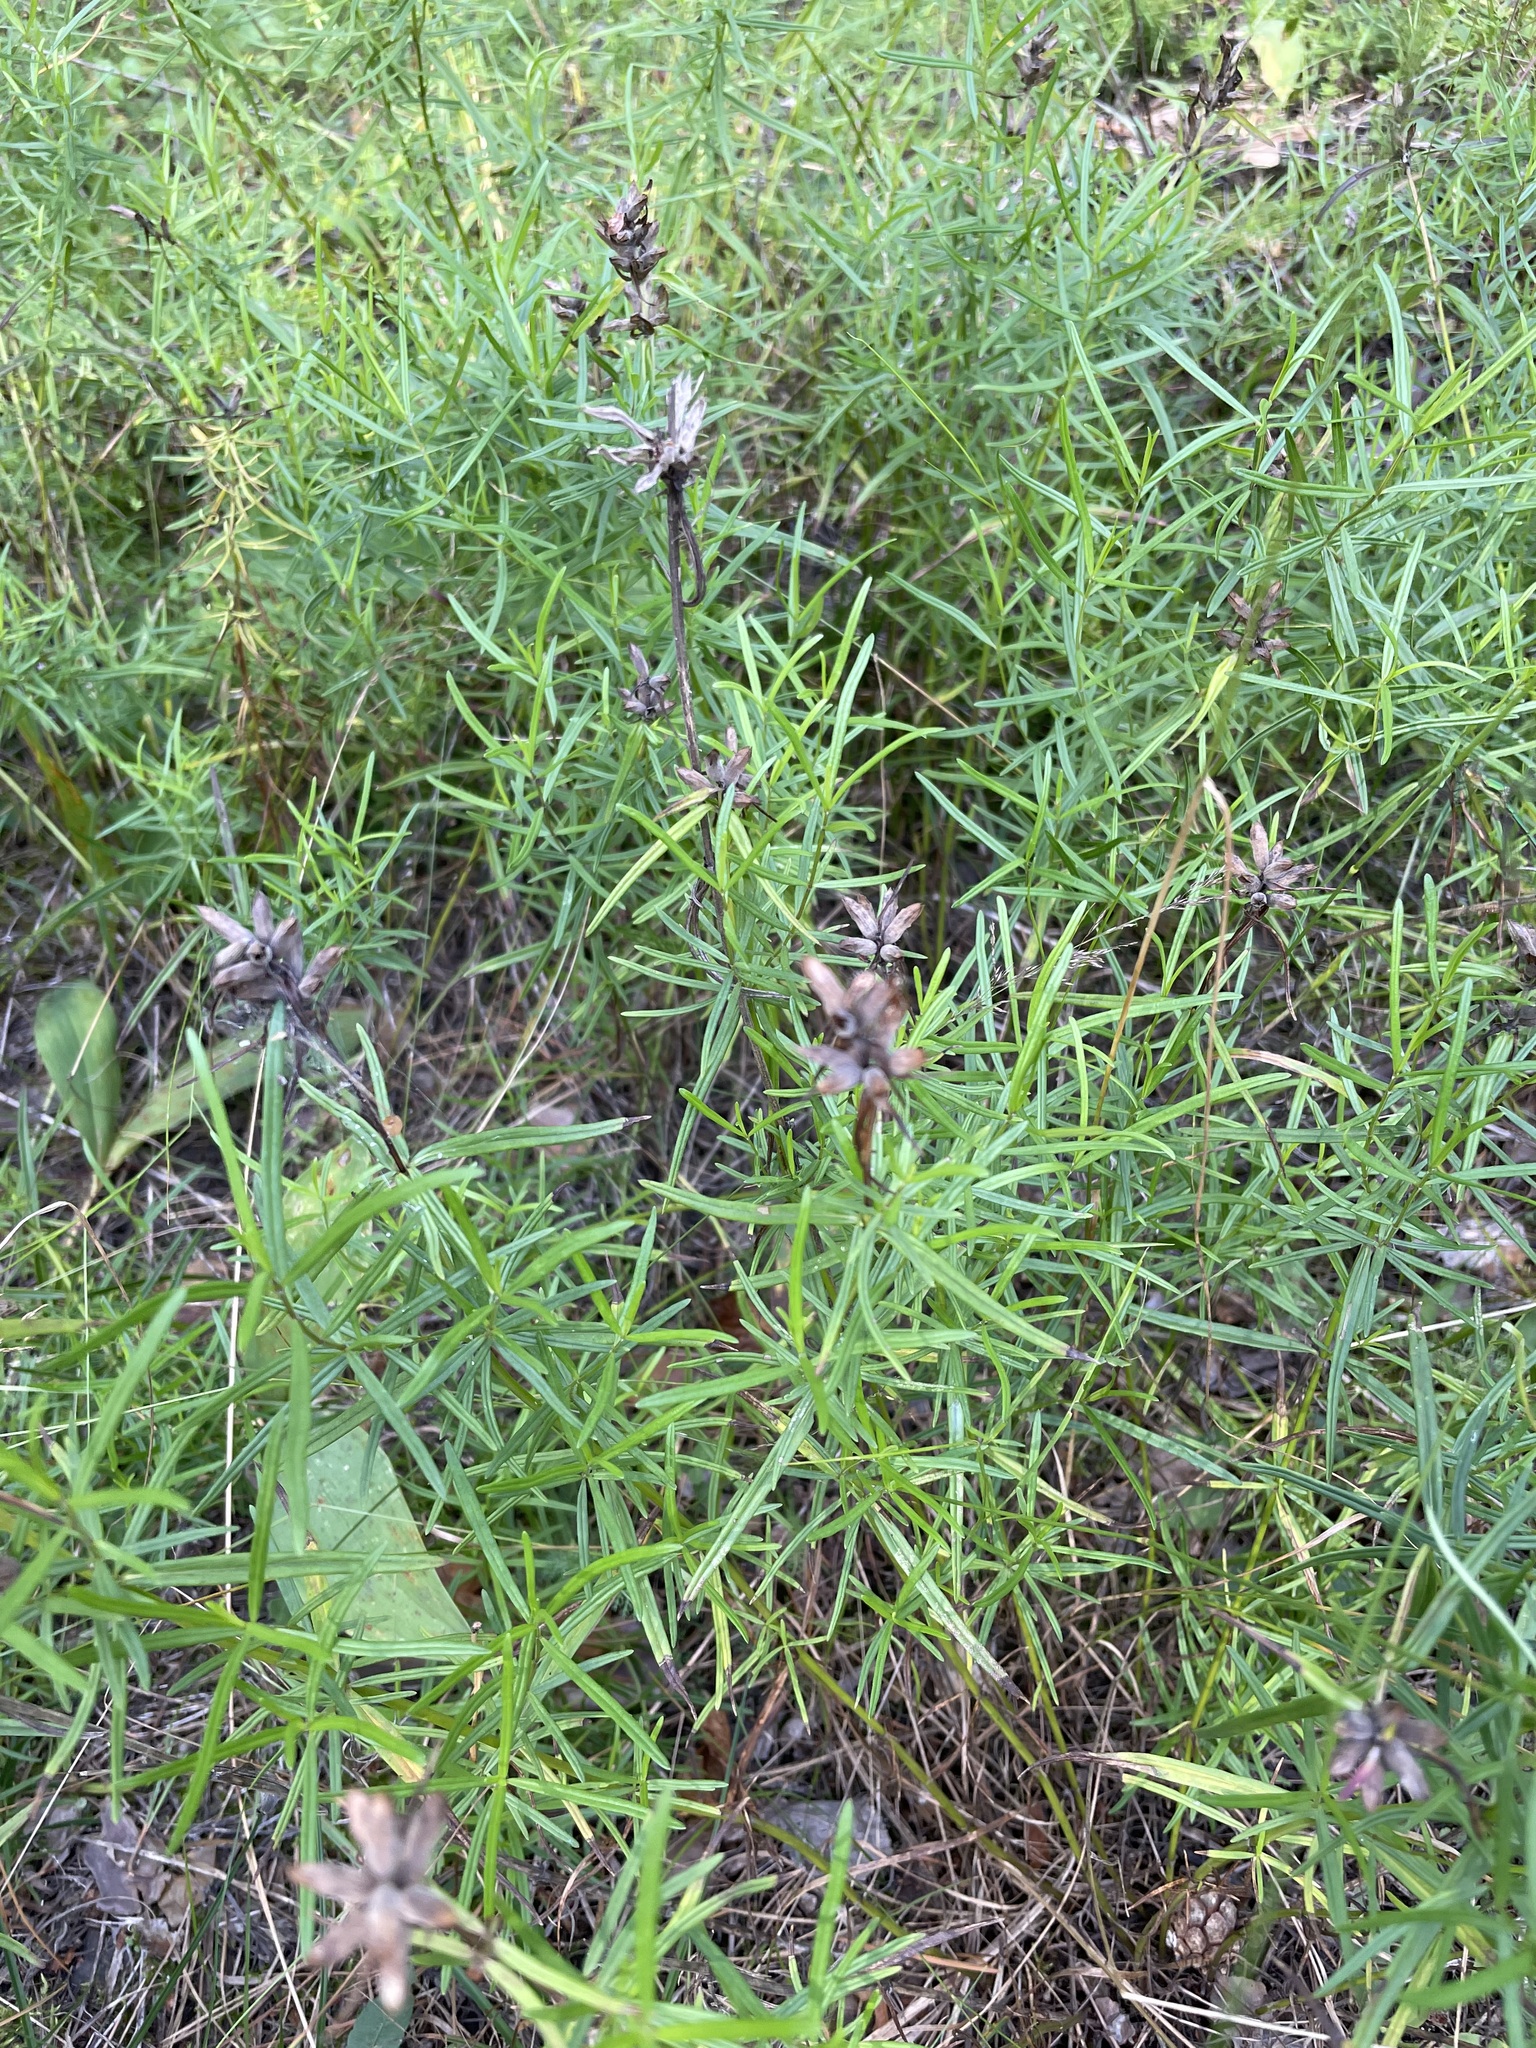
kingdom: Plantae
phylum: Tracheophyta
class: Magnoliopsida
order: Lamiales
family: Lamiaceae
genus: Dracocephalum
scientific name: Dracocephalum ruyschiana
